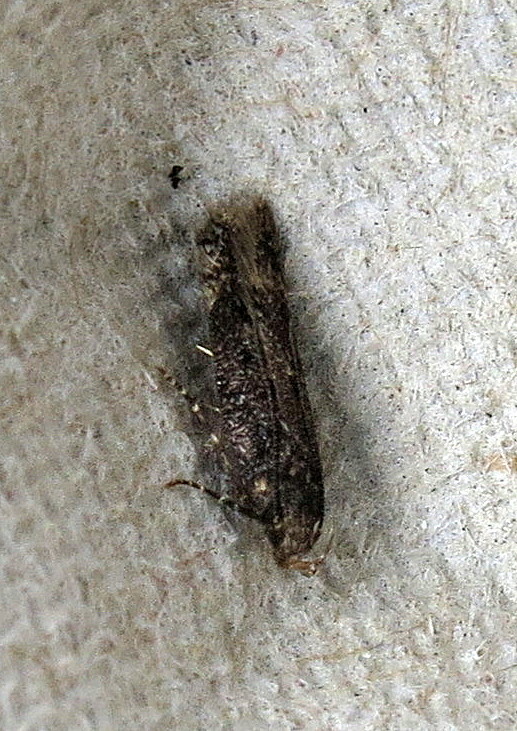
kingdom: Animalia
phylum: Arthropoda
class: Insecta
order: Lepidoptera
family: Gelechiidae
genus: Bryotropha
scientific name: Bryotropha affinis
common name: Dark groundling
